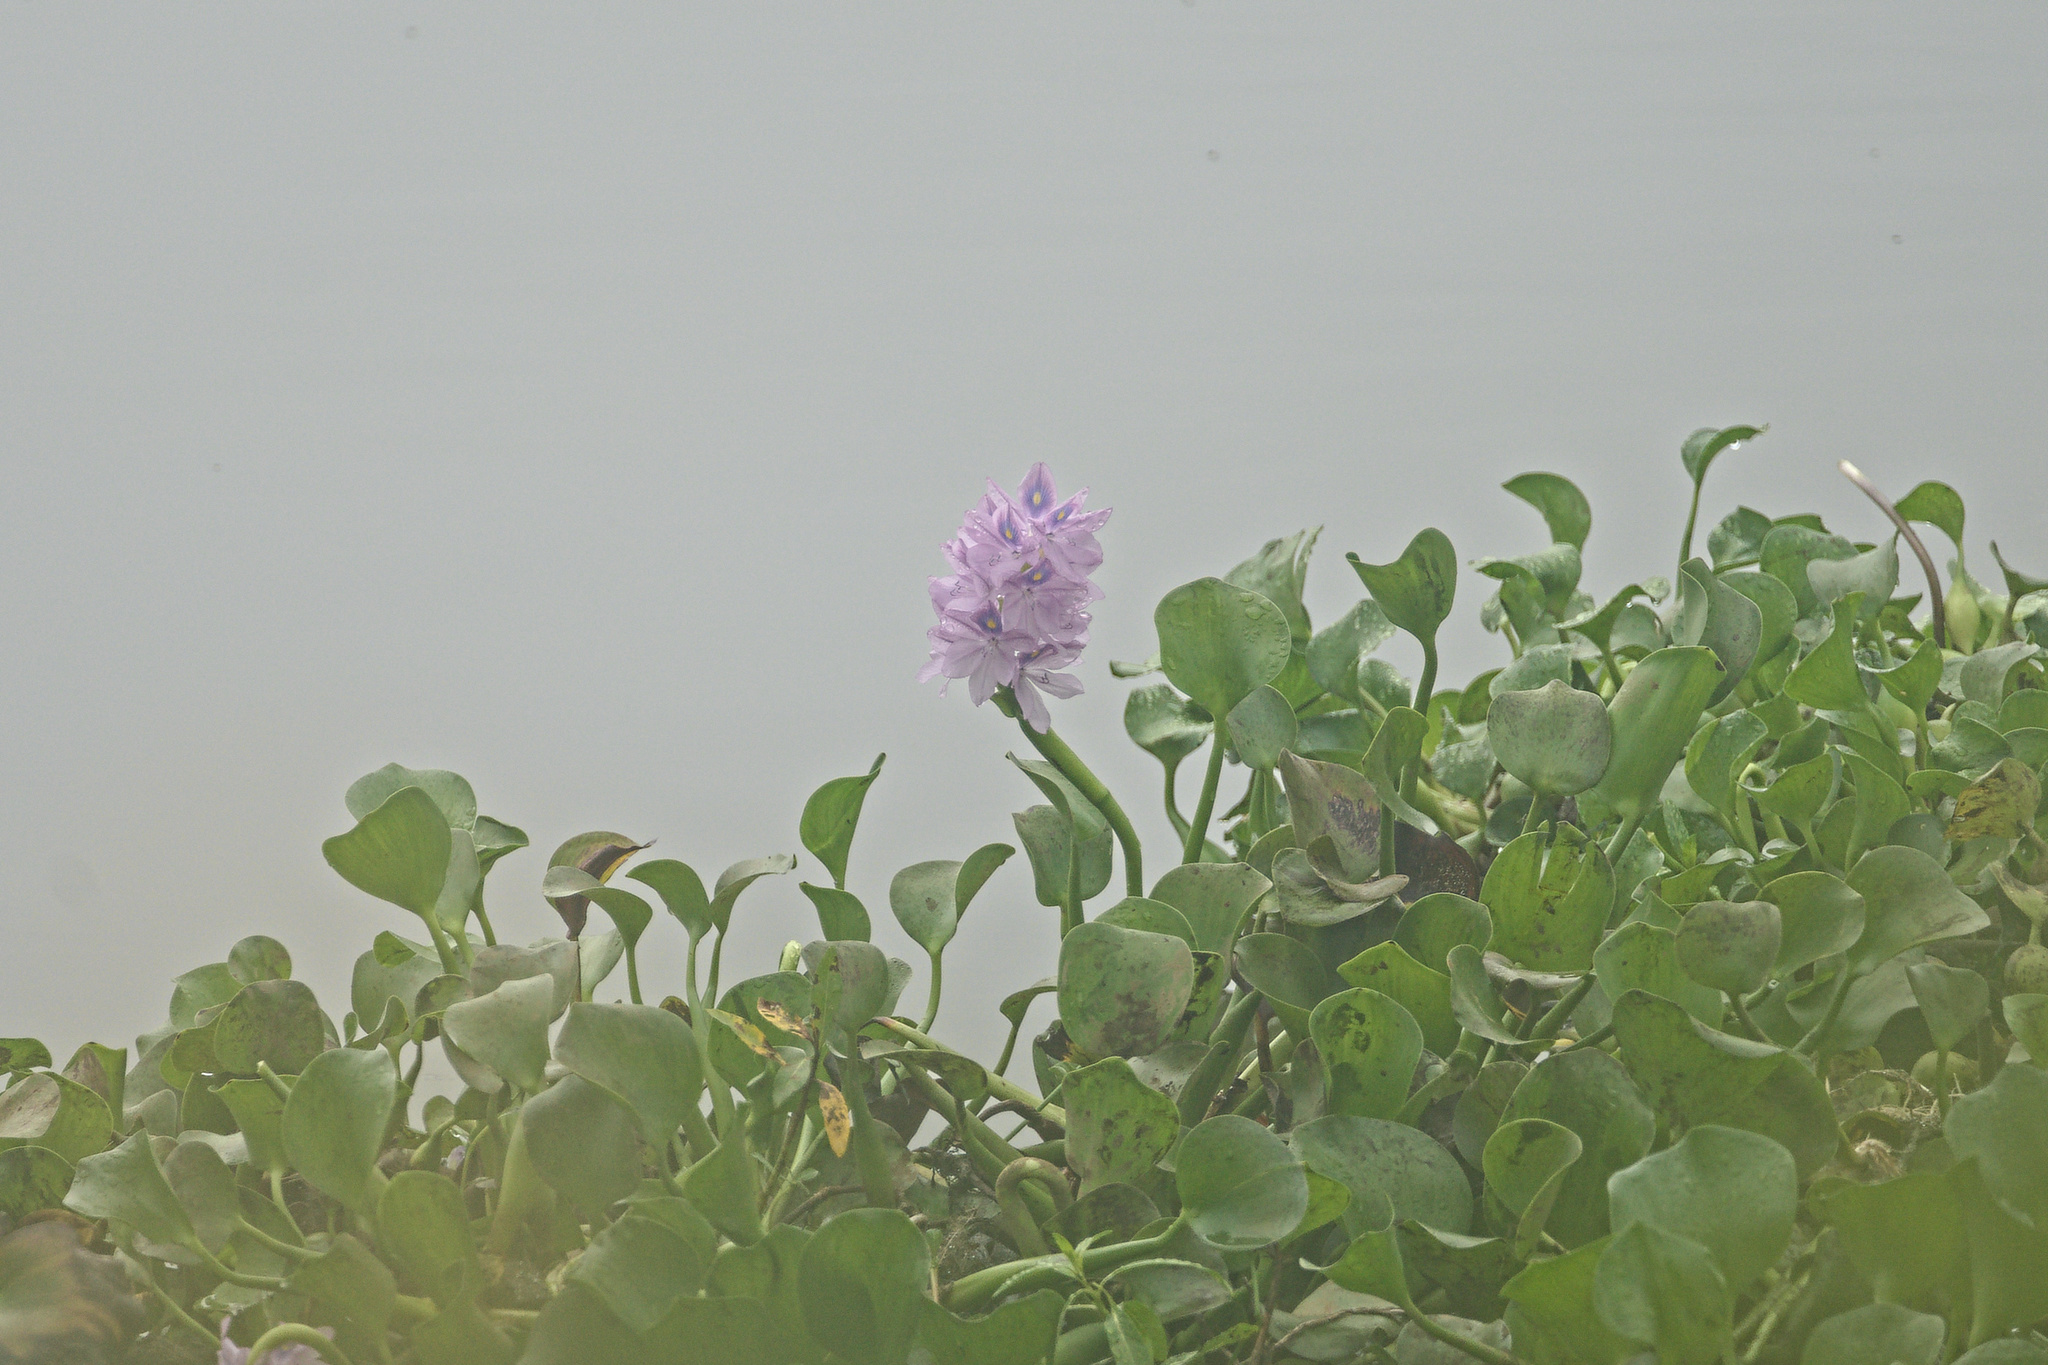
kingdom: Plantae
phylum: Tracheophyta
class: Liliopsida
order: Commelinales
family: Pontederiaceae
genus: Pontederia
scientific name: Pontederia crassipes
